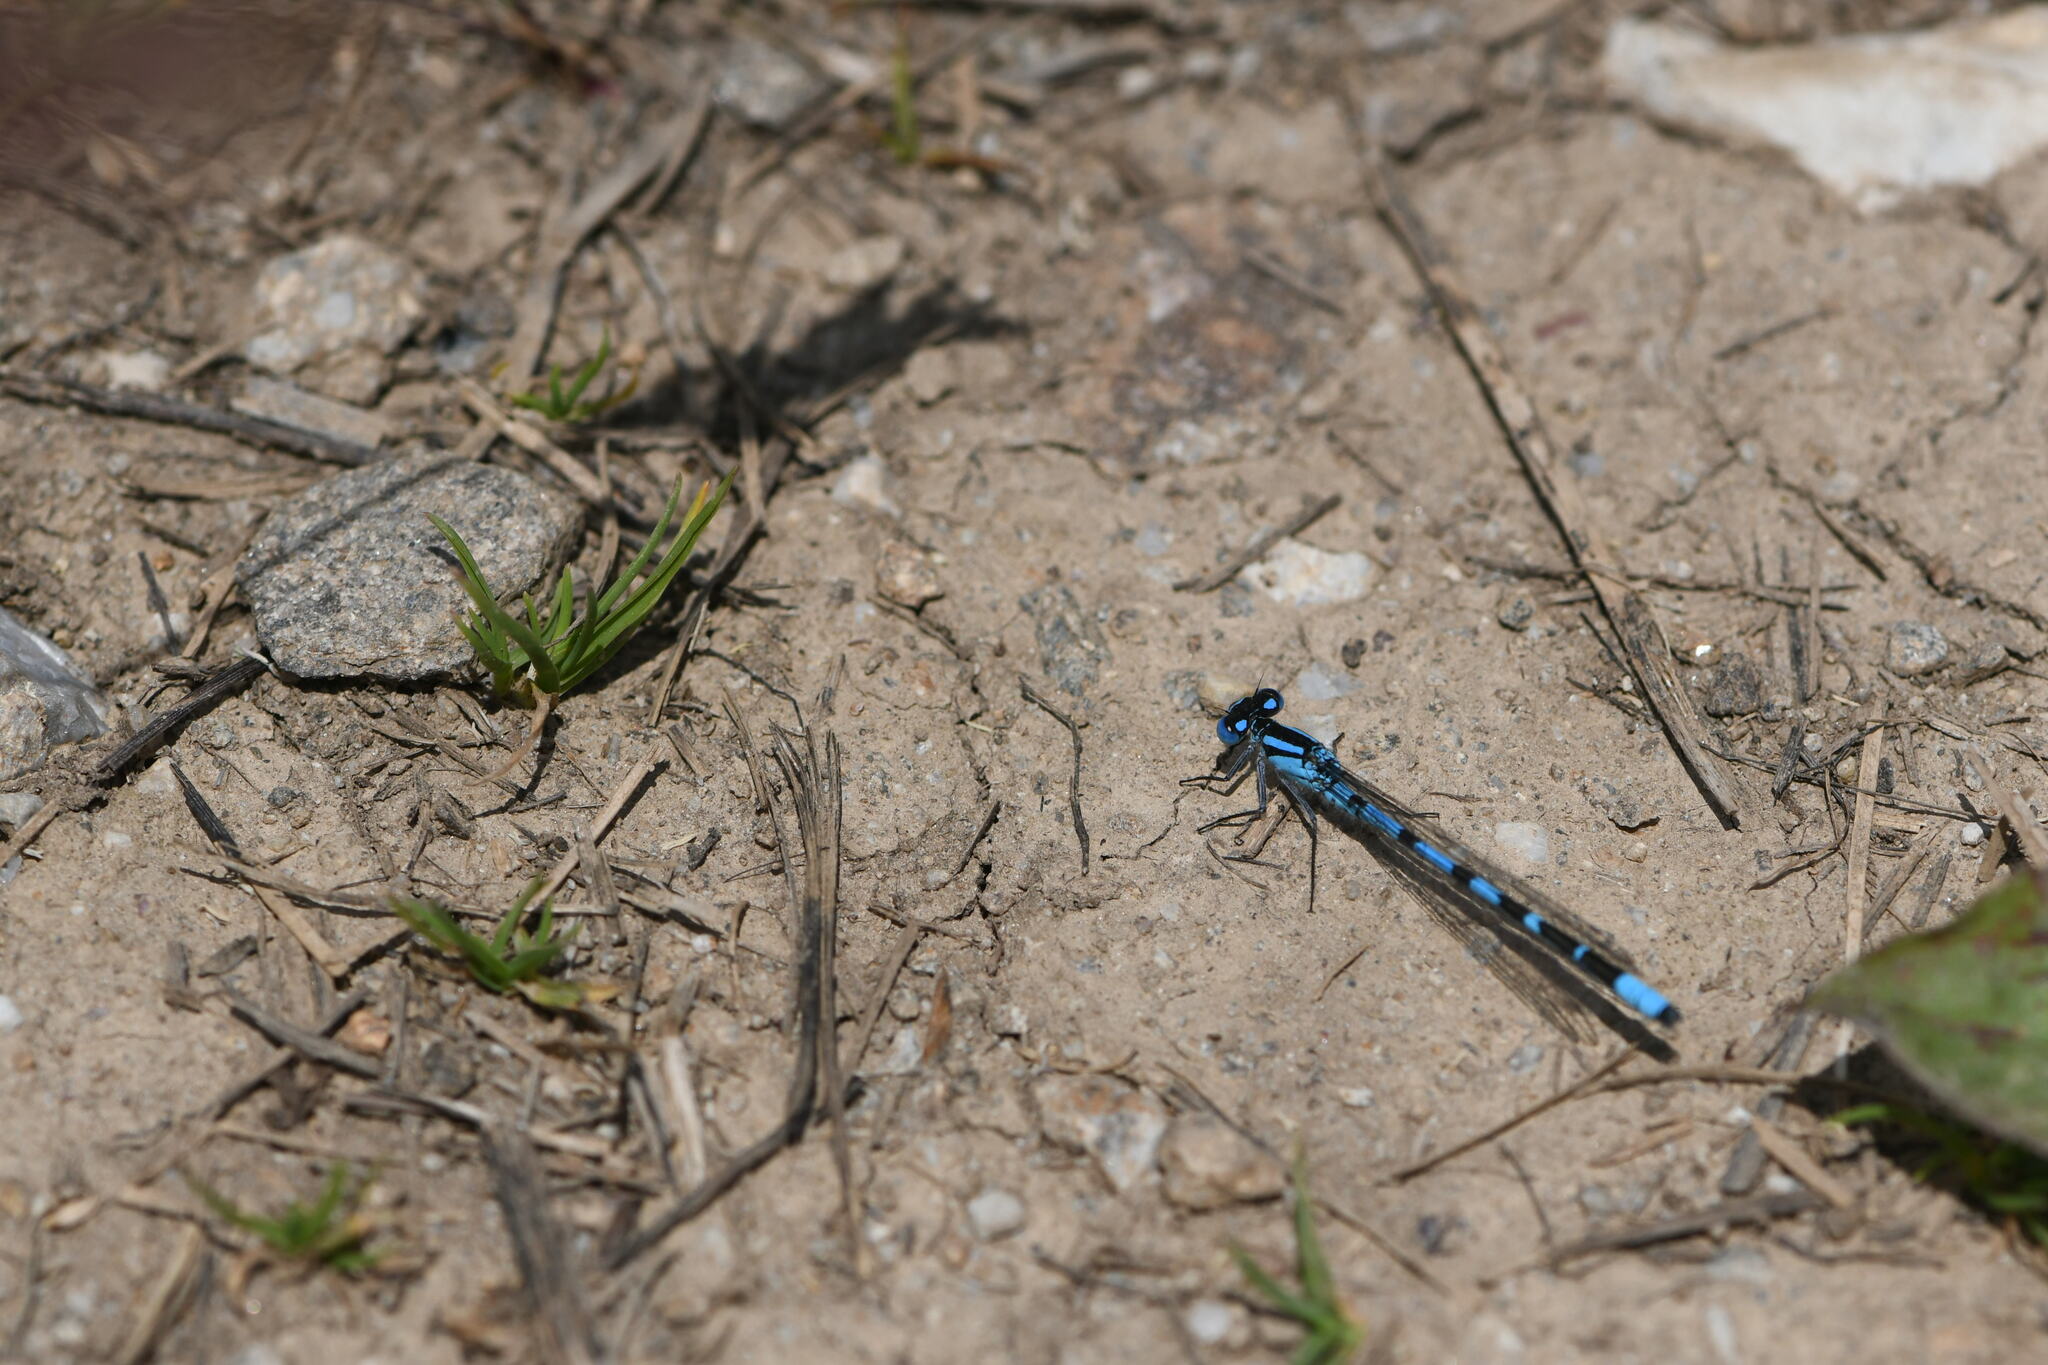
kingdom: Animalia
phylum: Arthropoda
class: Insecta
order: Odonata
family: Coenagrionidae
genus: Enallagma
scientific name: Enallagma cyathigerum
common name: Common blue damselfly
